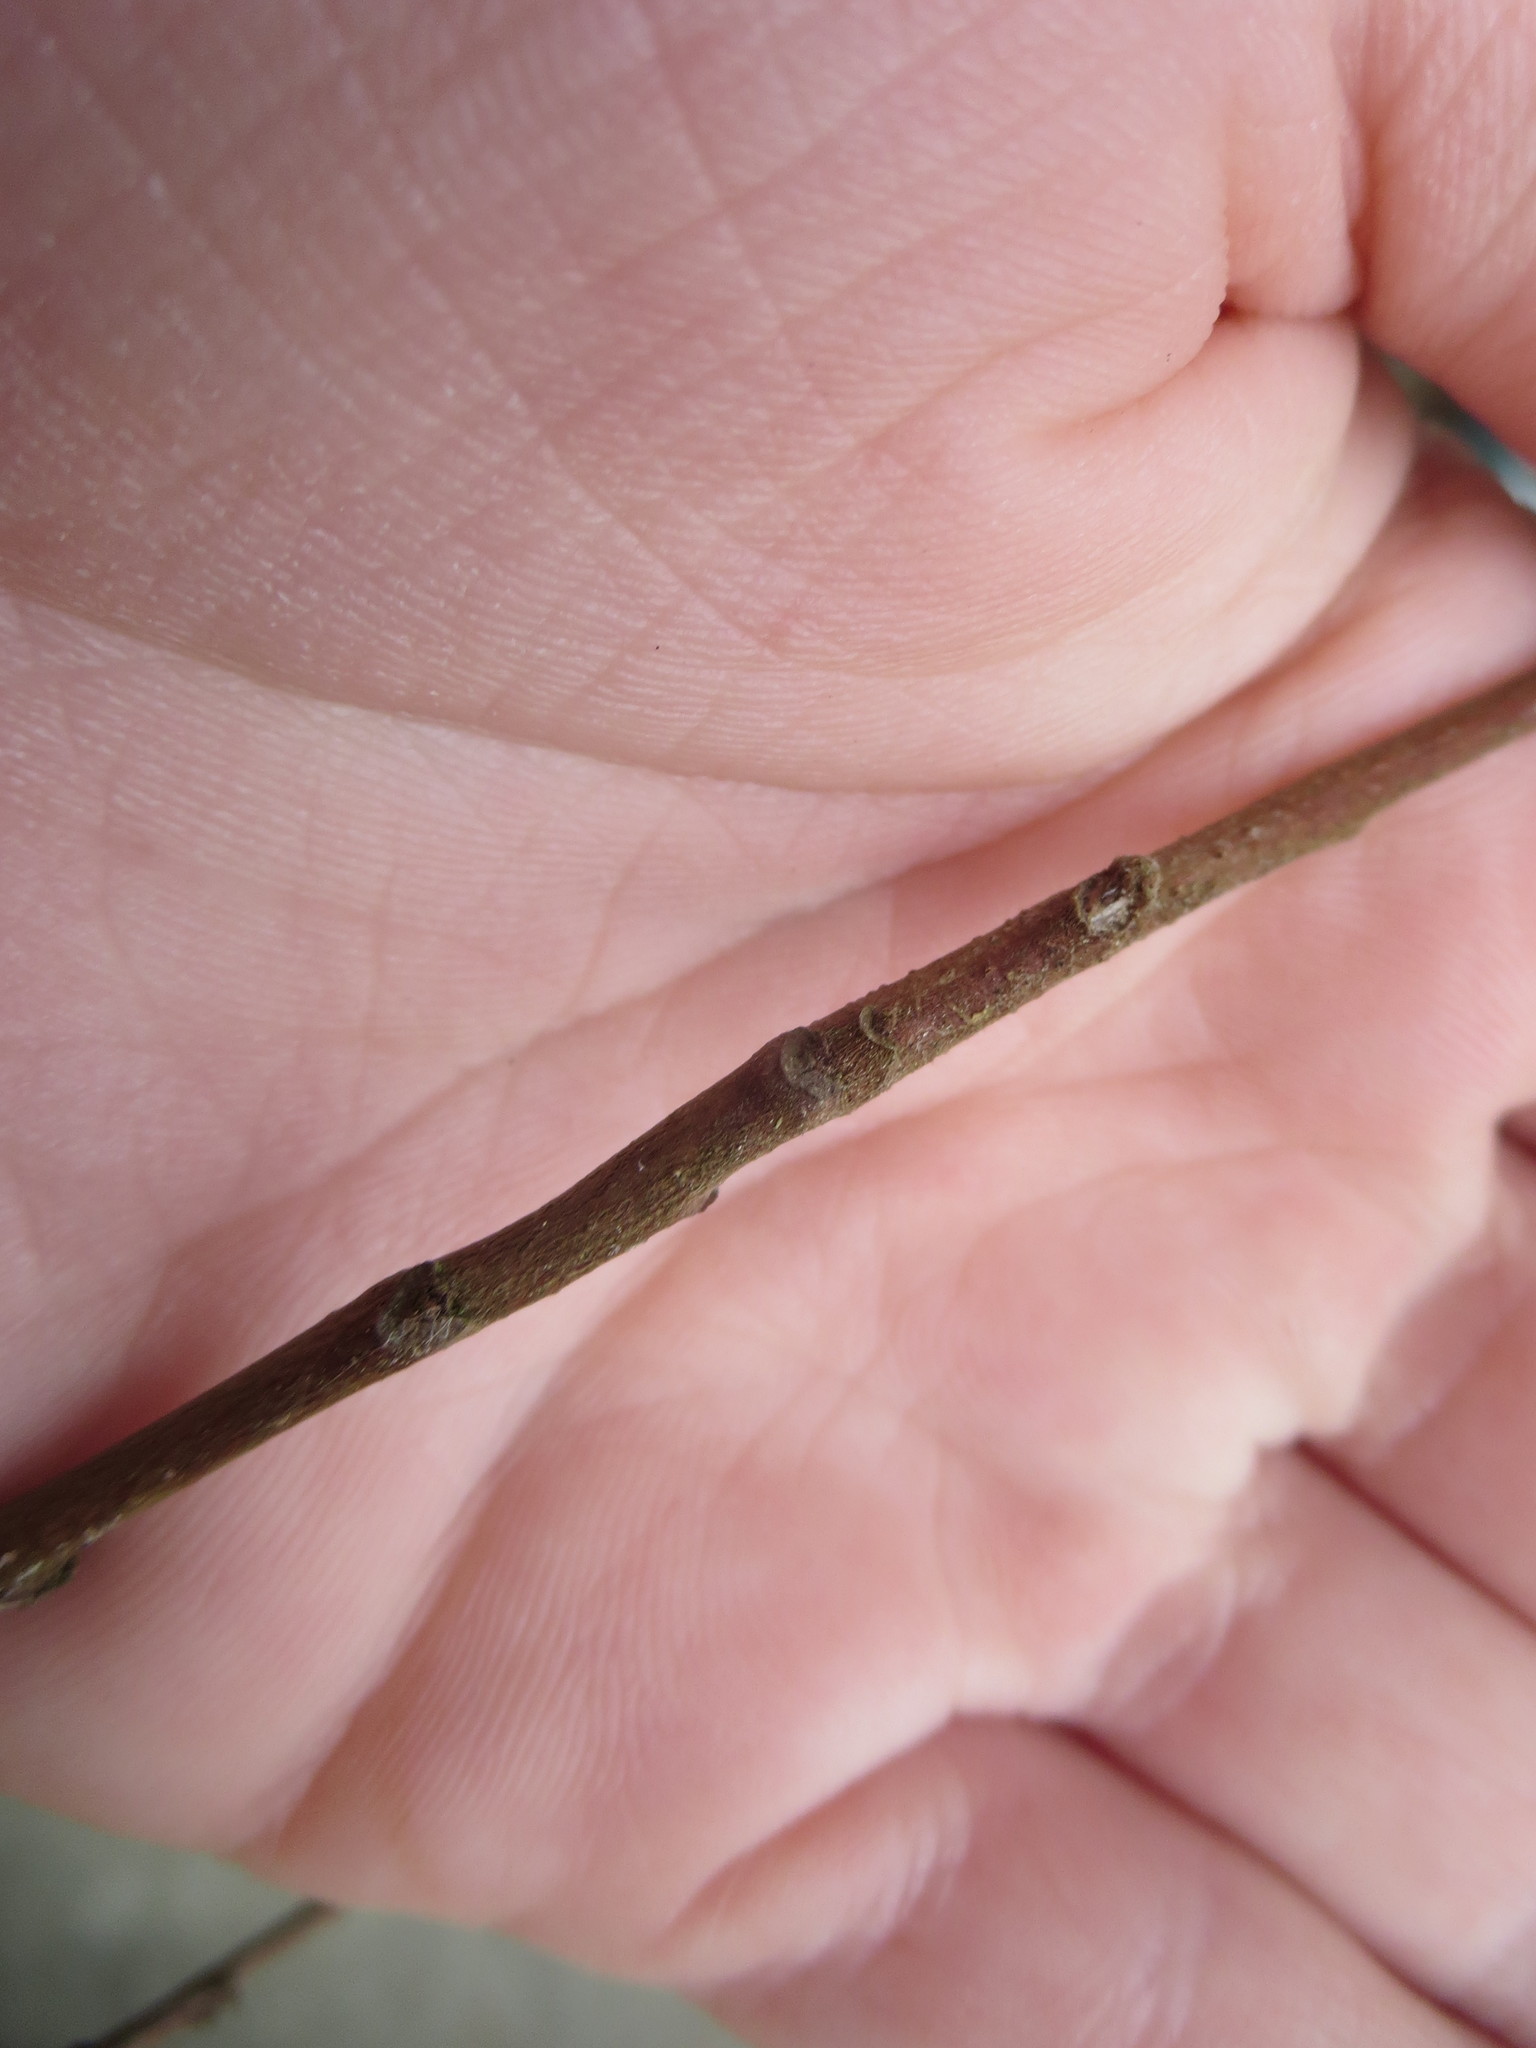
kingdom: Plantae
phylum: Tracheophyta
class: Magnoliopsida
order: Magnoliales
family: Annonaceae
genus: Asimina
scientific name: Asimina parviflora
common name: Dwarf pawpaw
